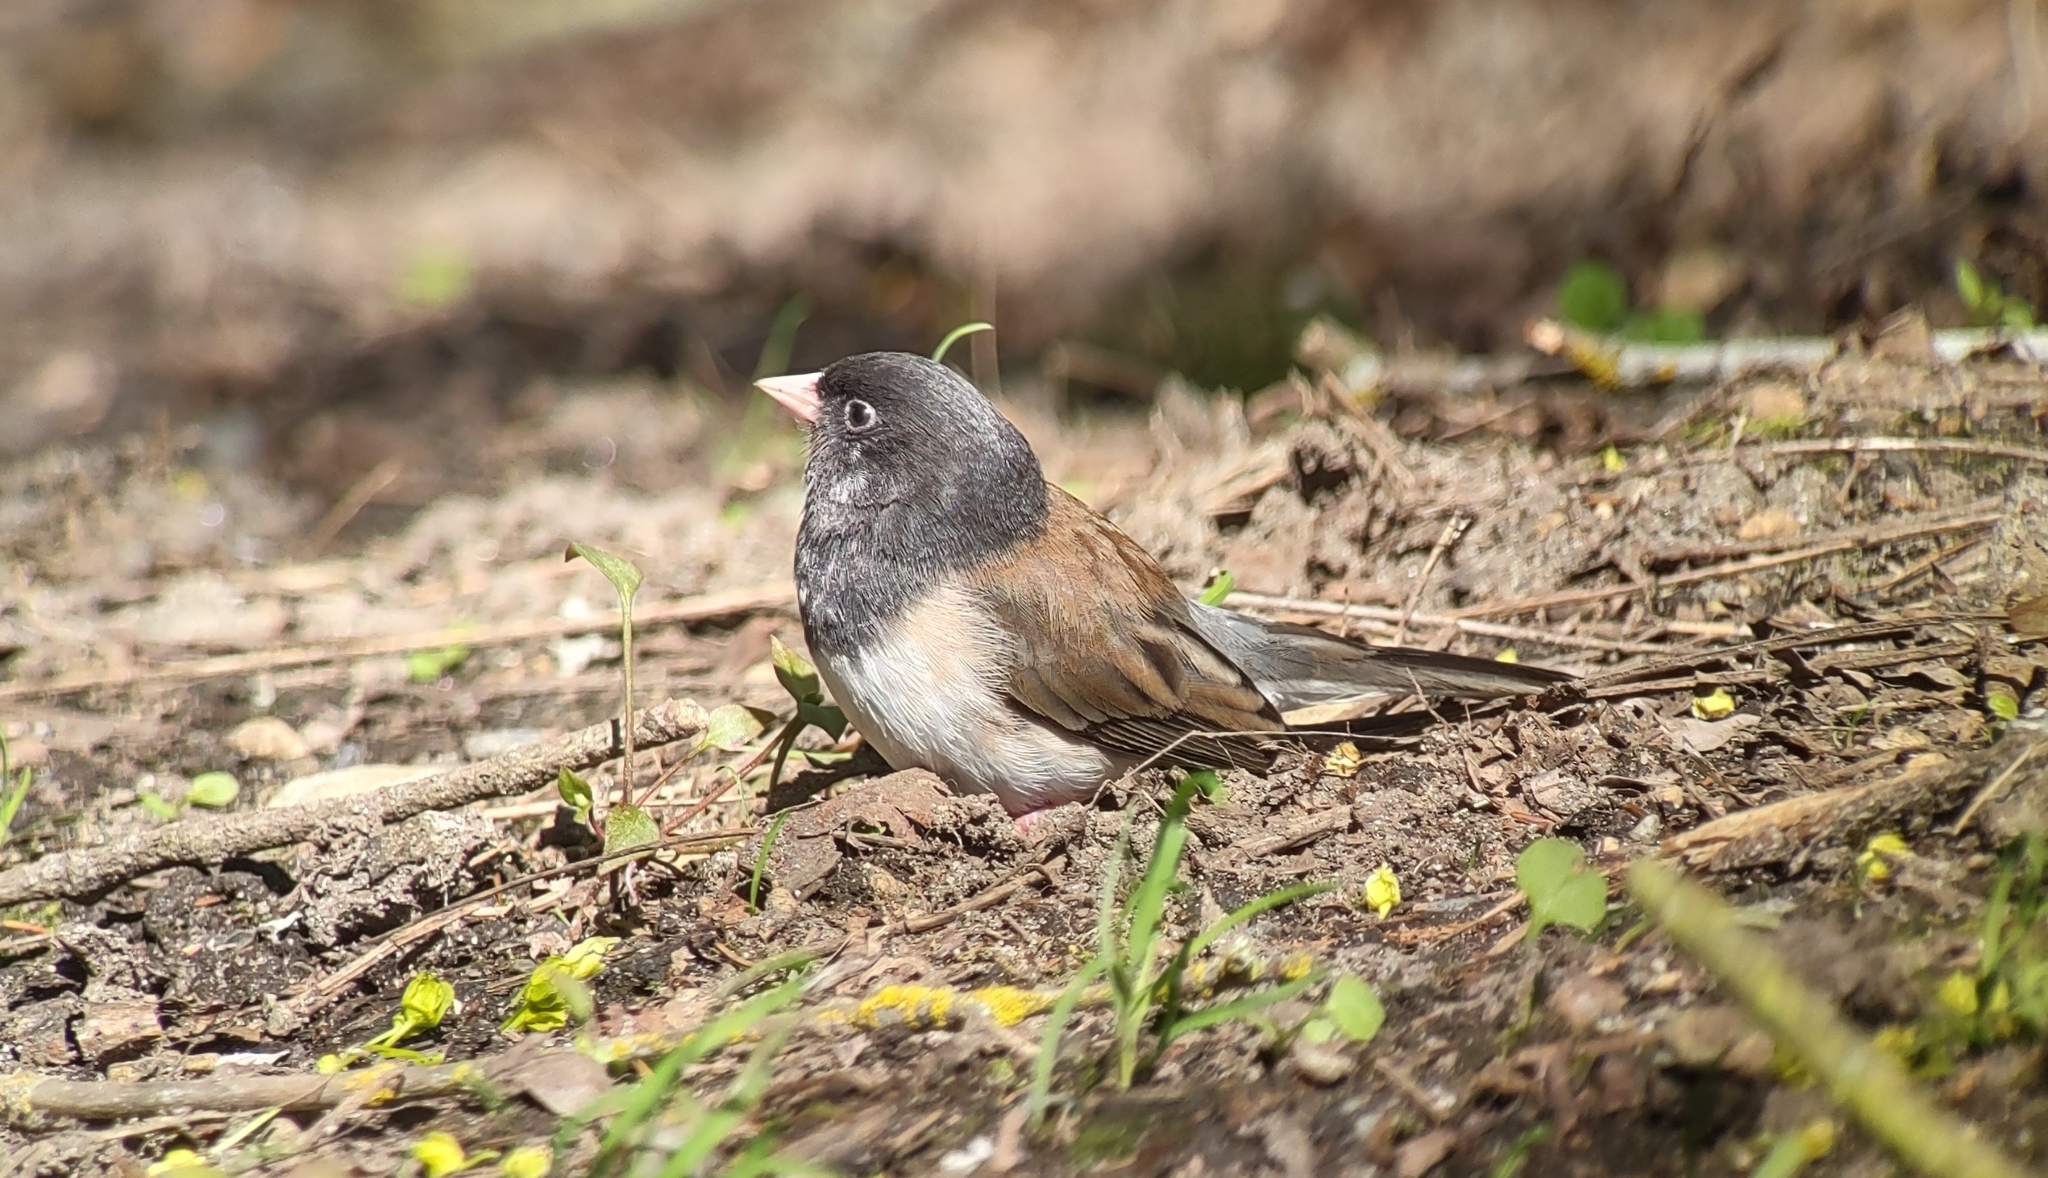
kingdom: Animalia
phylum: Chordata
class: Aves
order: Passeriformes
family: Passerellidae
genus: Junco
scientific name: Junco hyemalis
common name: Dark-eyed junco
